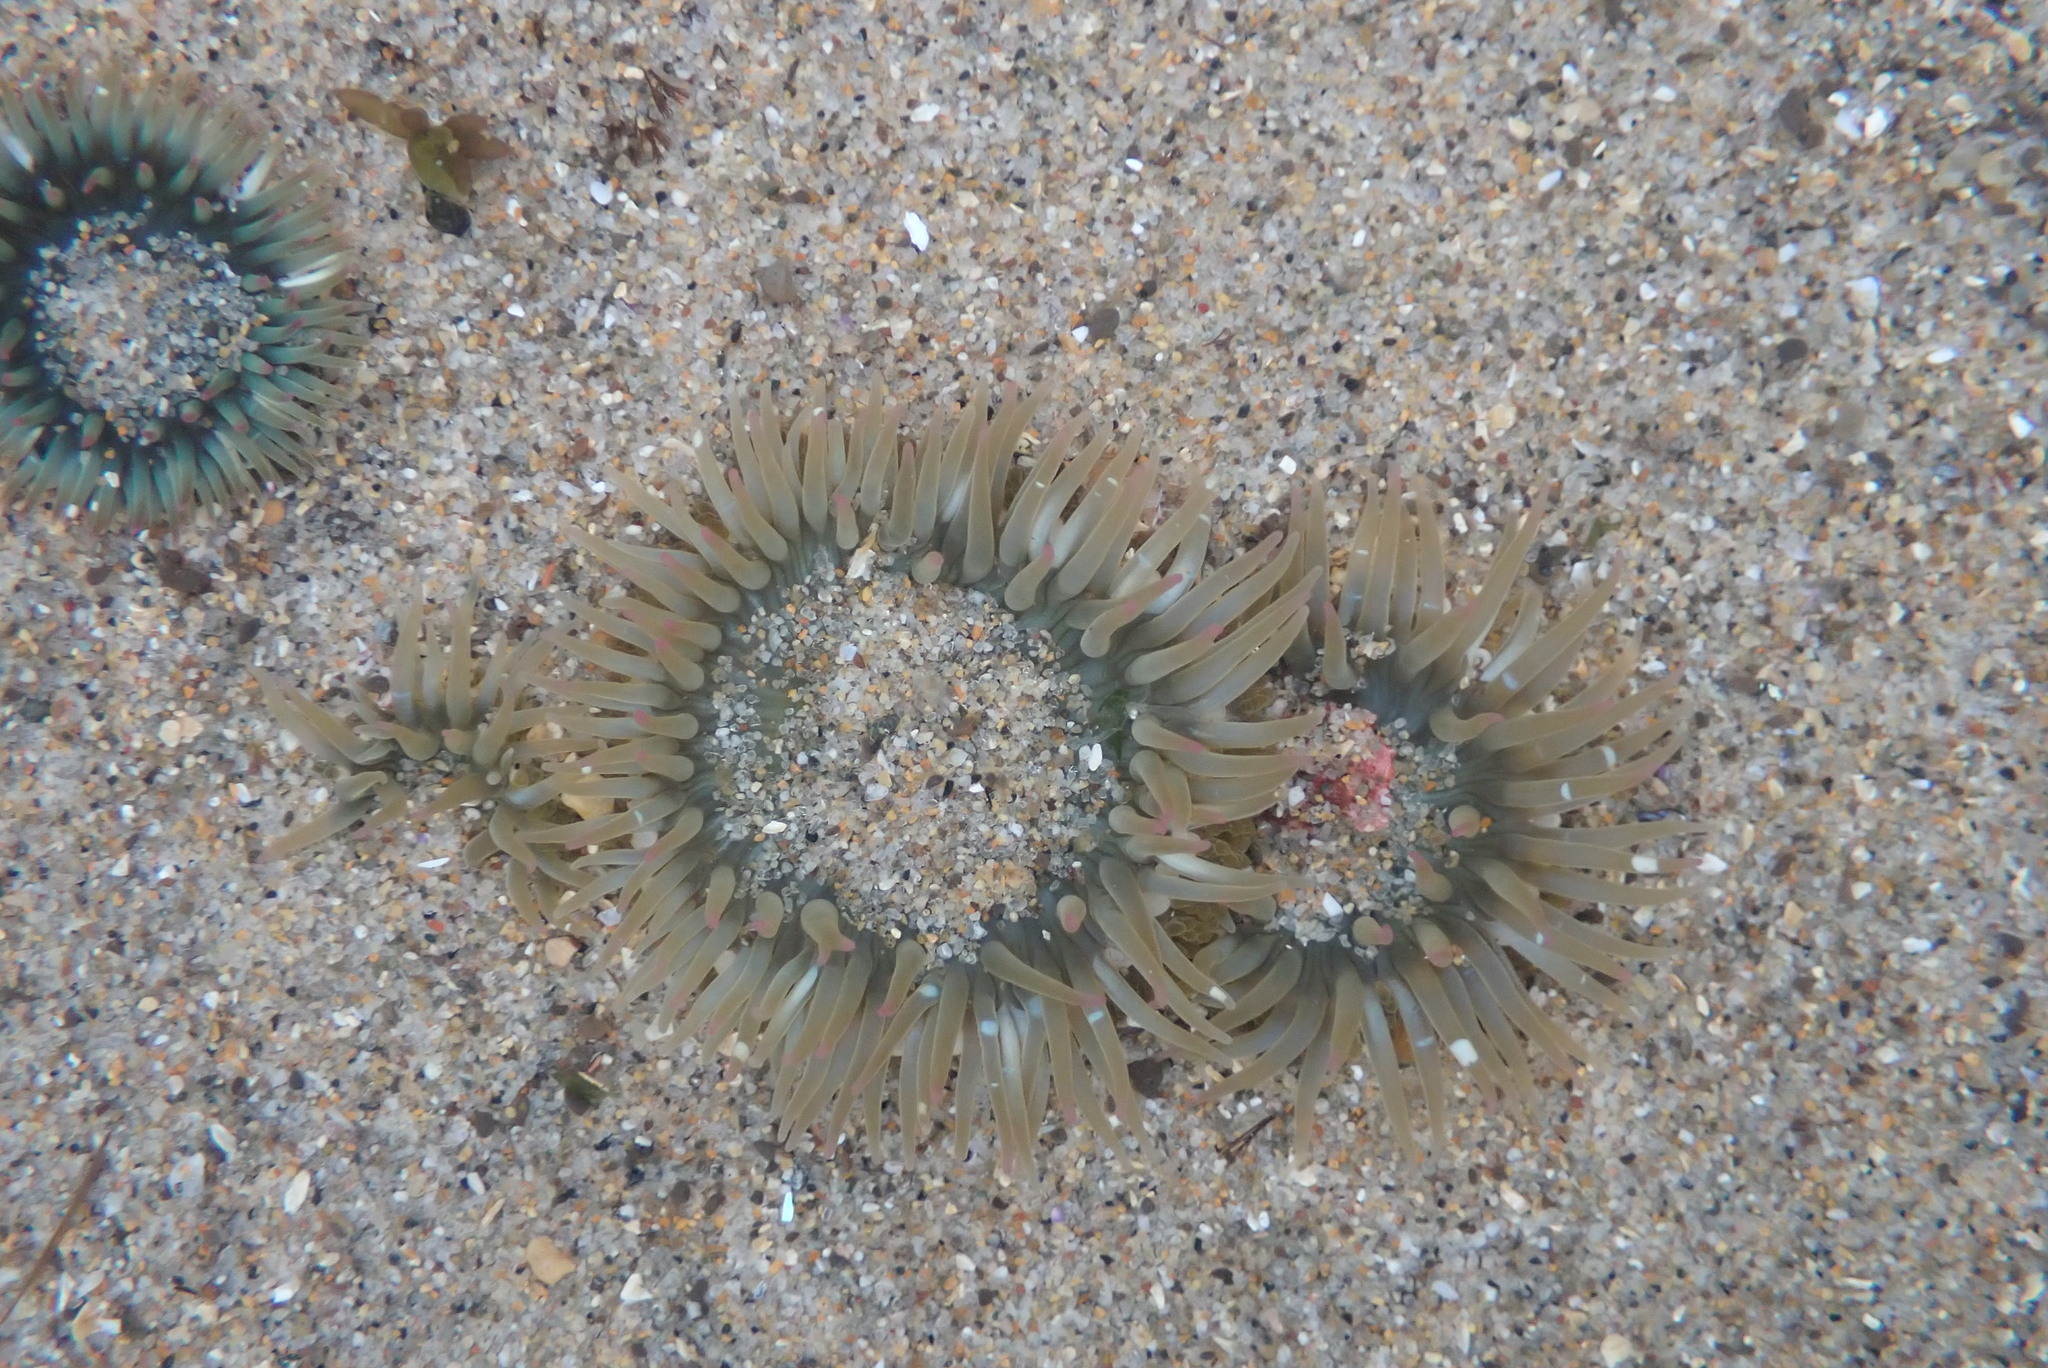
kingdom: Animalia
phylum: Cnidaria
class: Anthozoa
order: Actiniaria
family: Actiniidae
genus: Anthopleura
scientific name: Anthopleura elegantissima
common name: Clonal anemone
